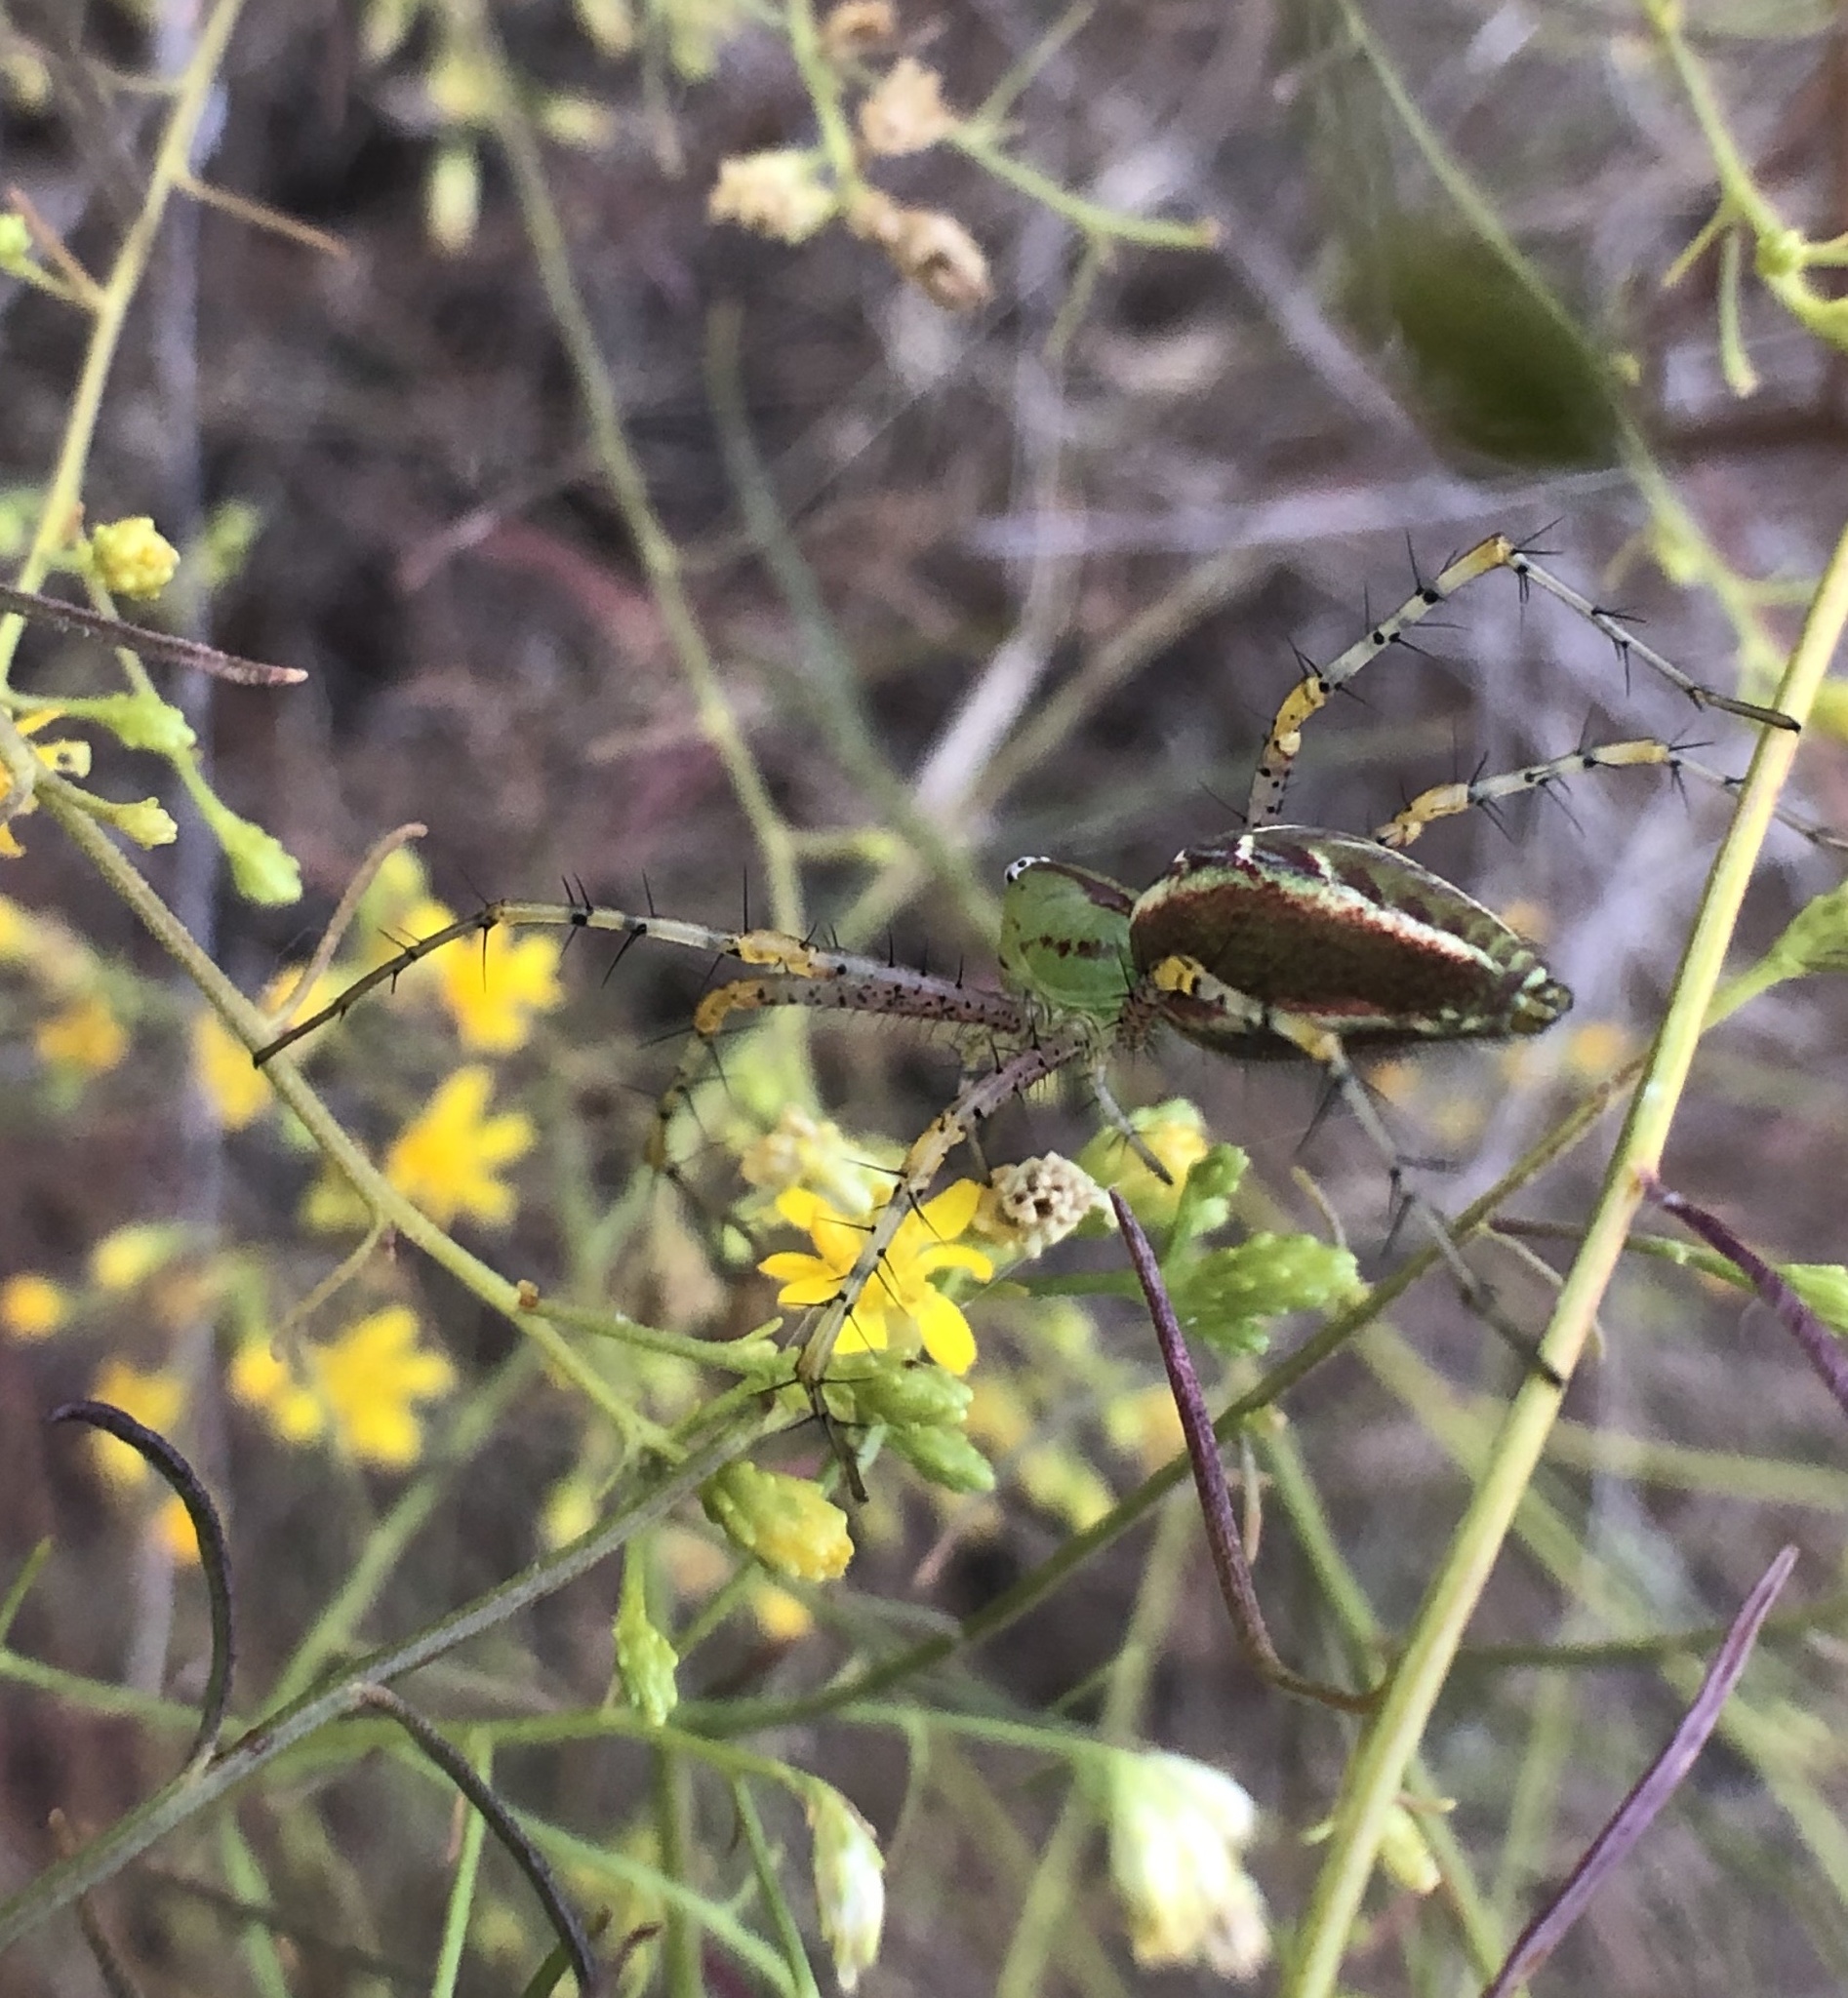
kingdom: Animalia
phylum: Arthropoda
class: Arachnida
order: Araneae
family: Oxyopidae
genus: Peucetia
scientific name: Peucetia viridans
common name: Lynx spiders
